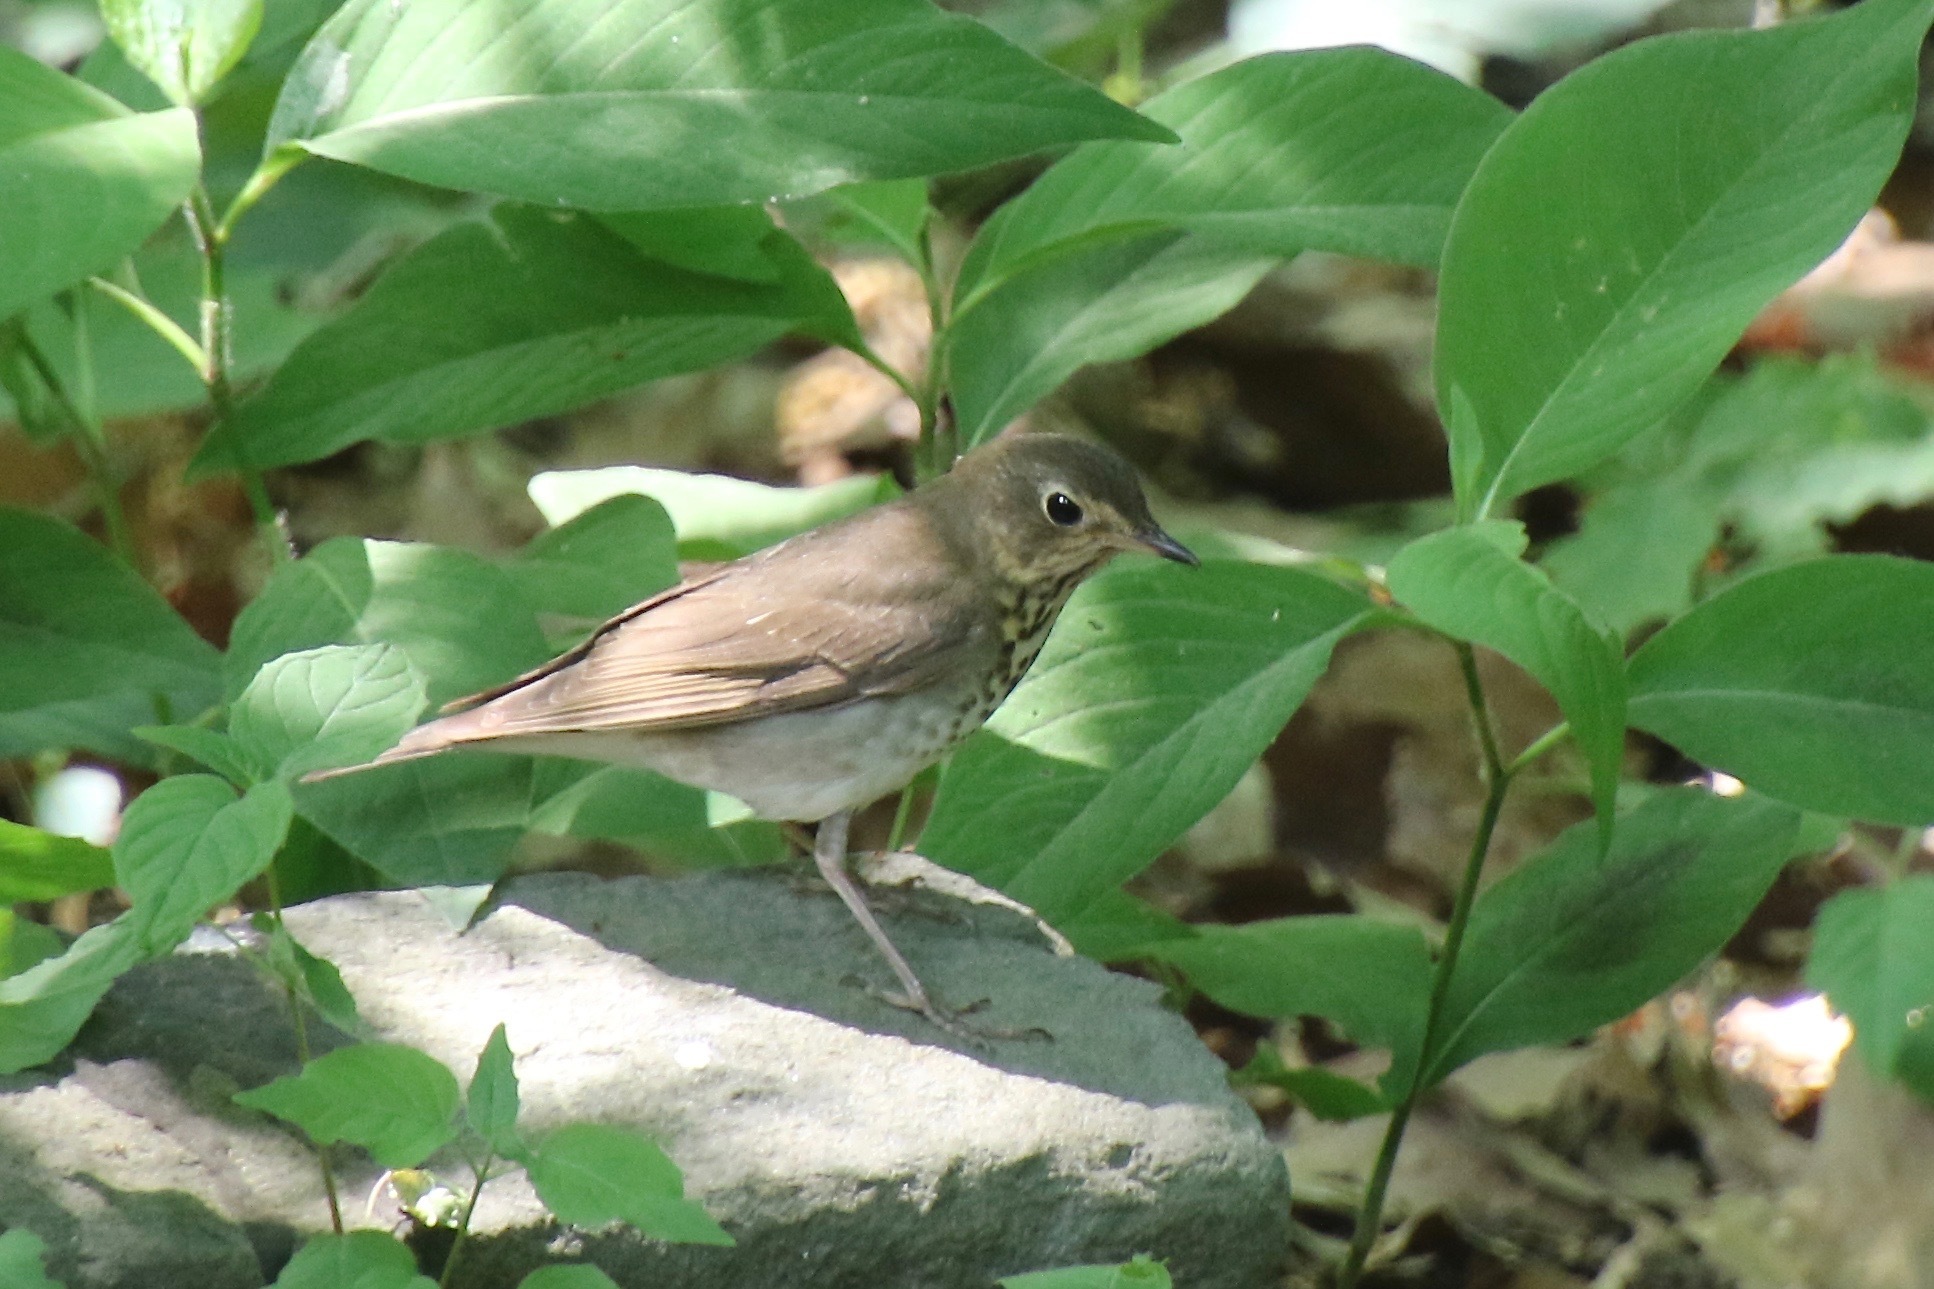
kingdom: Animalia
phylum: Chordata
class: Aves
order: Passeriformes
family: Turdidae
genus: Catharus
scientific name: Catharus ustulatus
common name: Swainson's thrush
